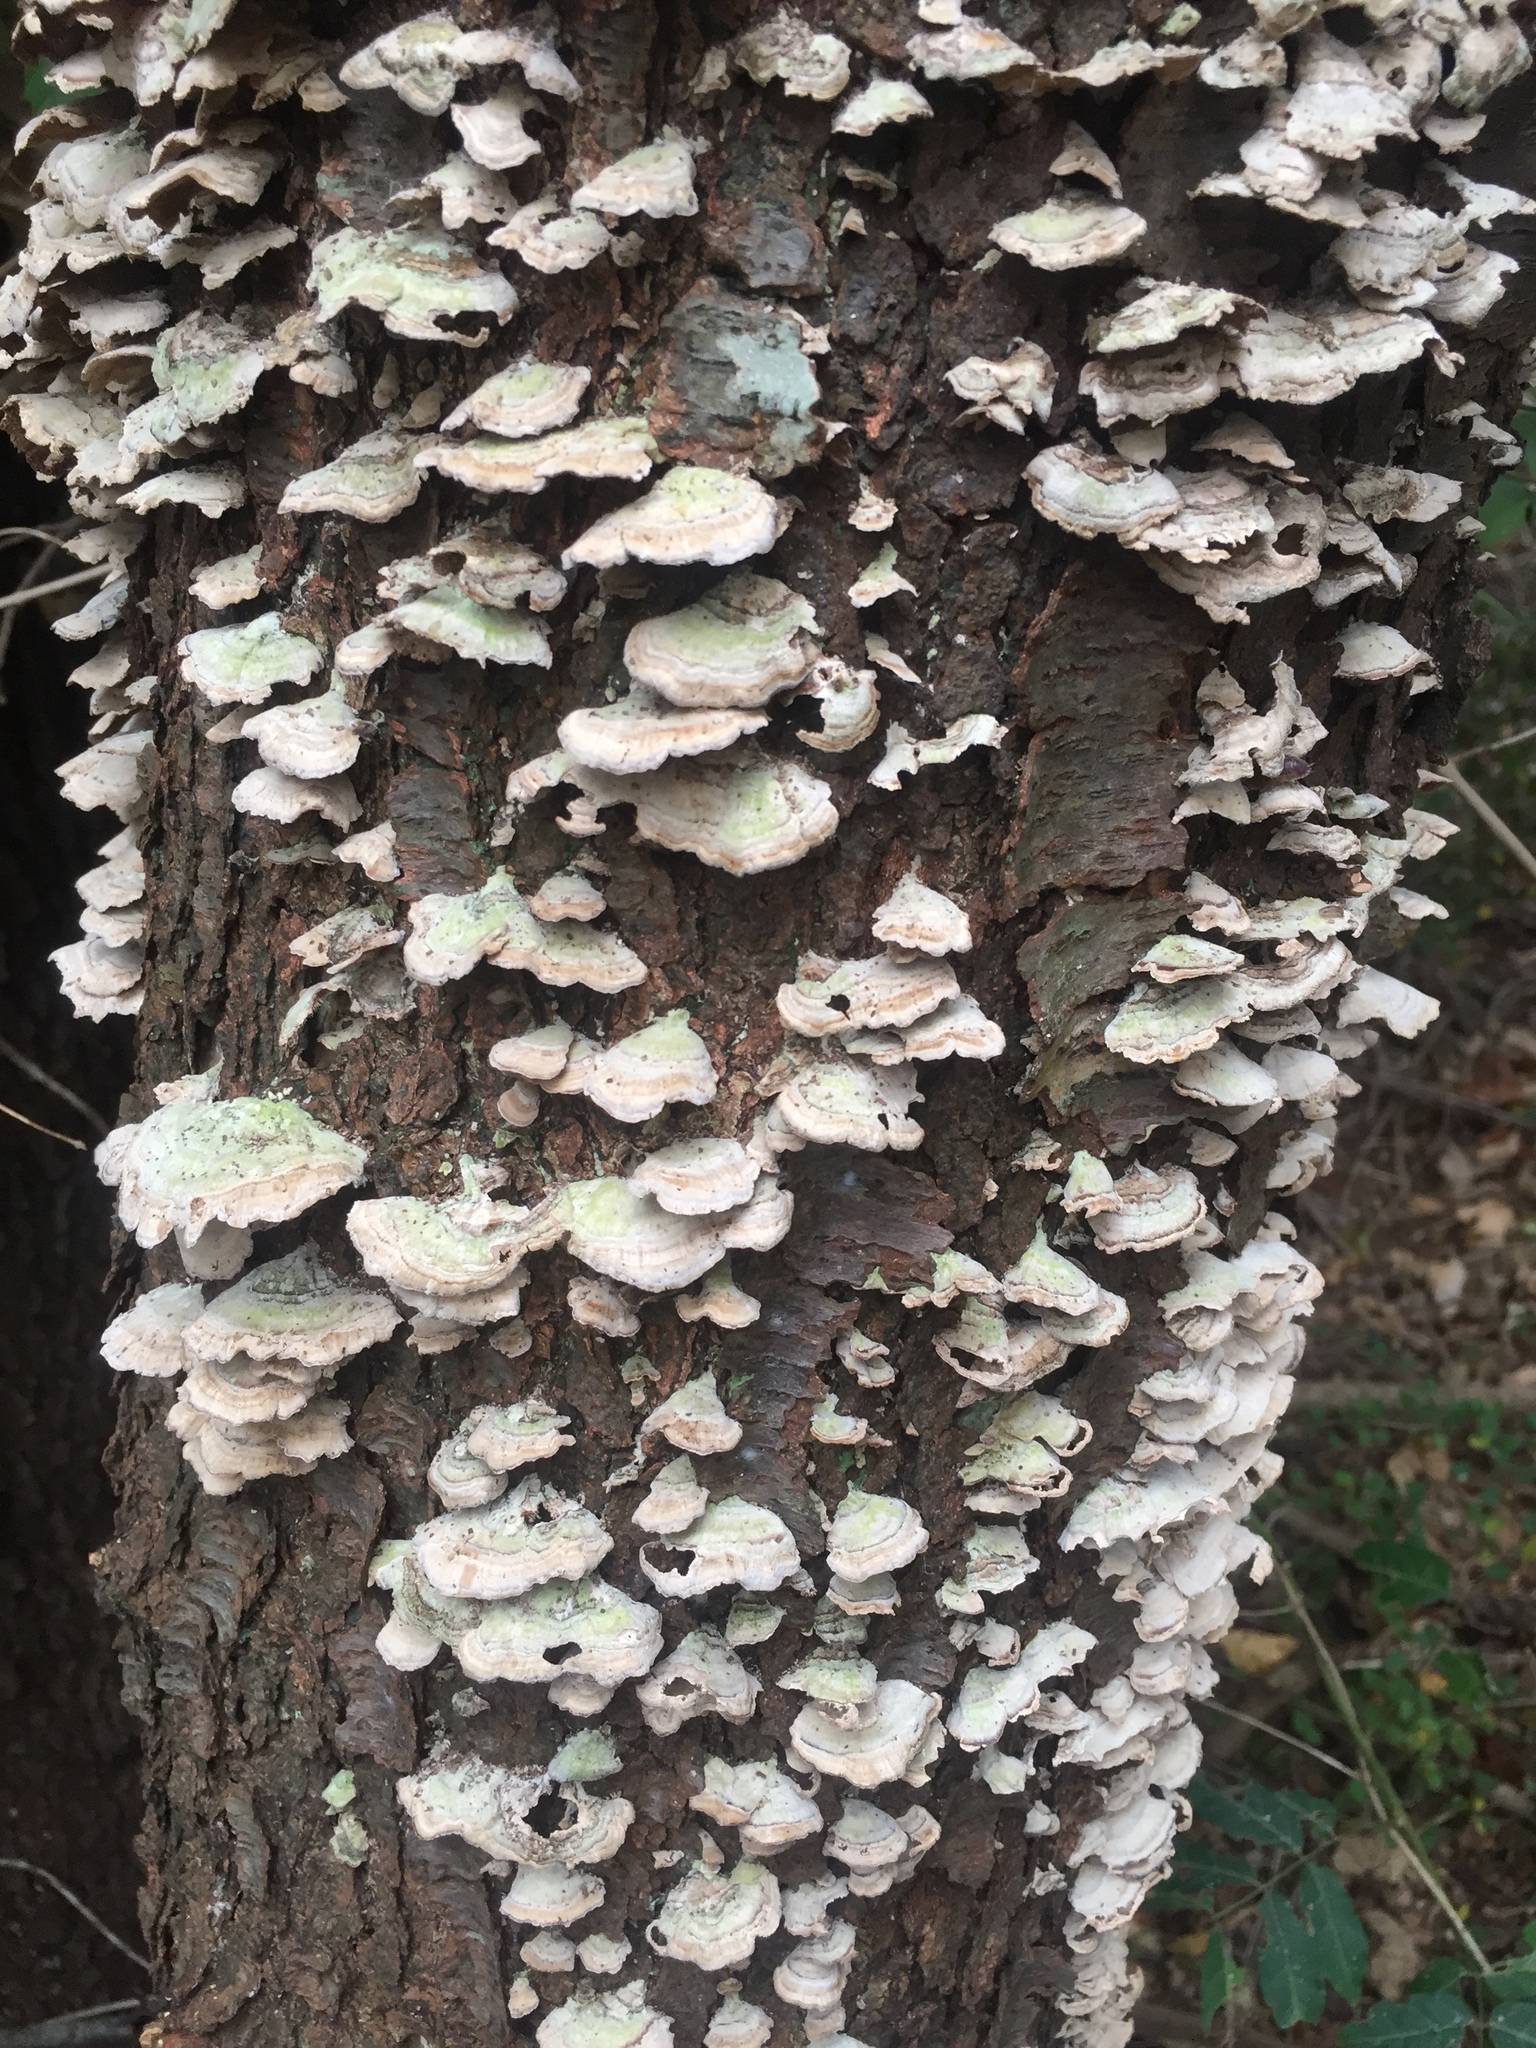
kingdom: Fungi
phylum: Basidiomycota
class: Agaricomycetes
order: Polyporales
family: Polyporaceae
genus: Trametes
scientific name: Trametes versicolor
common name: Turkeytail
